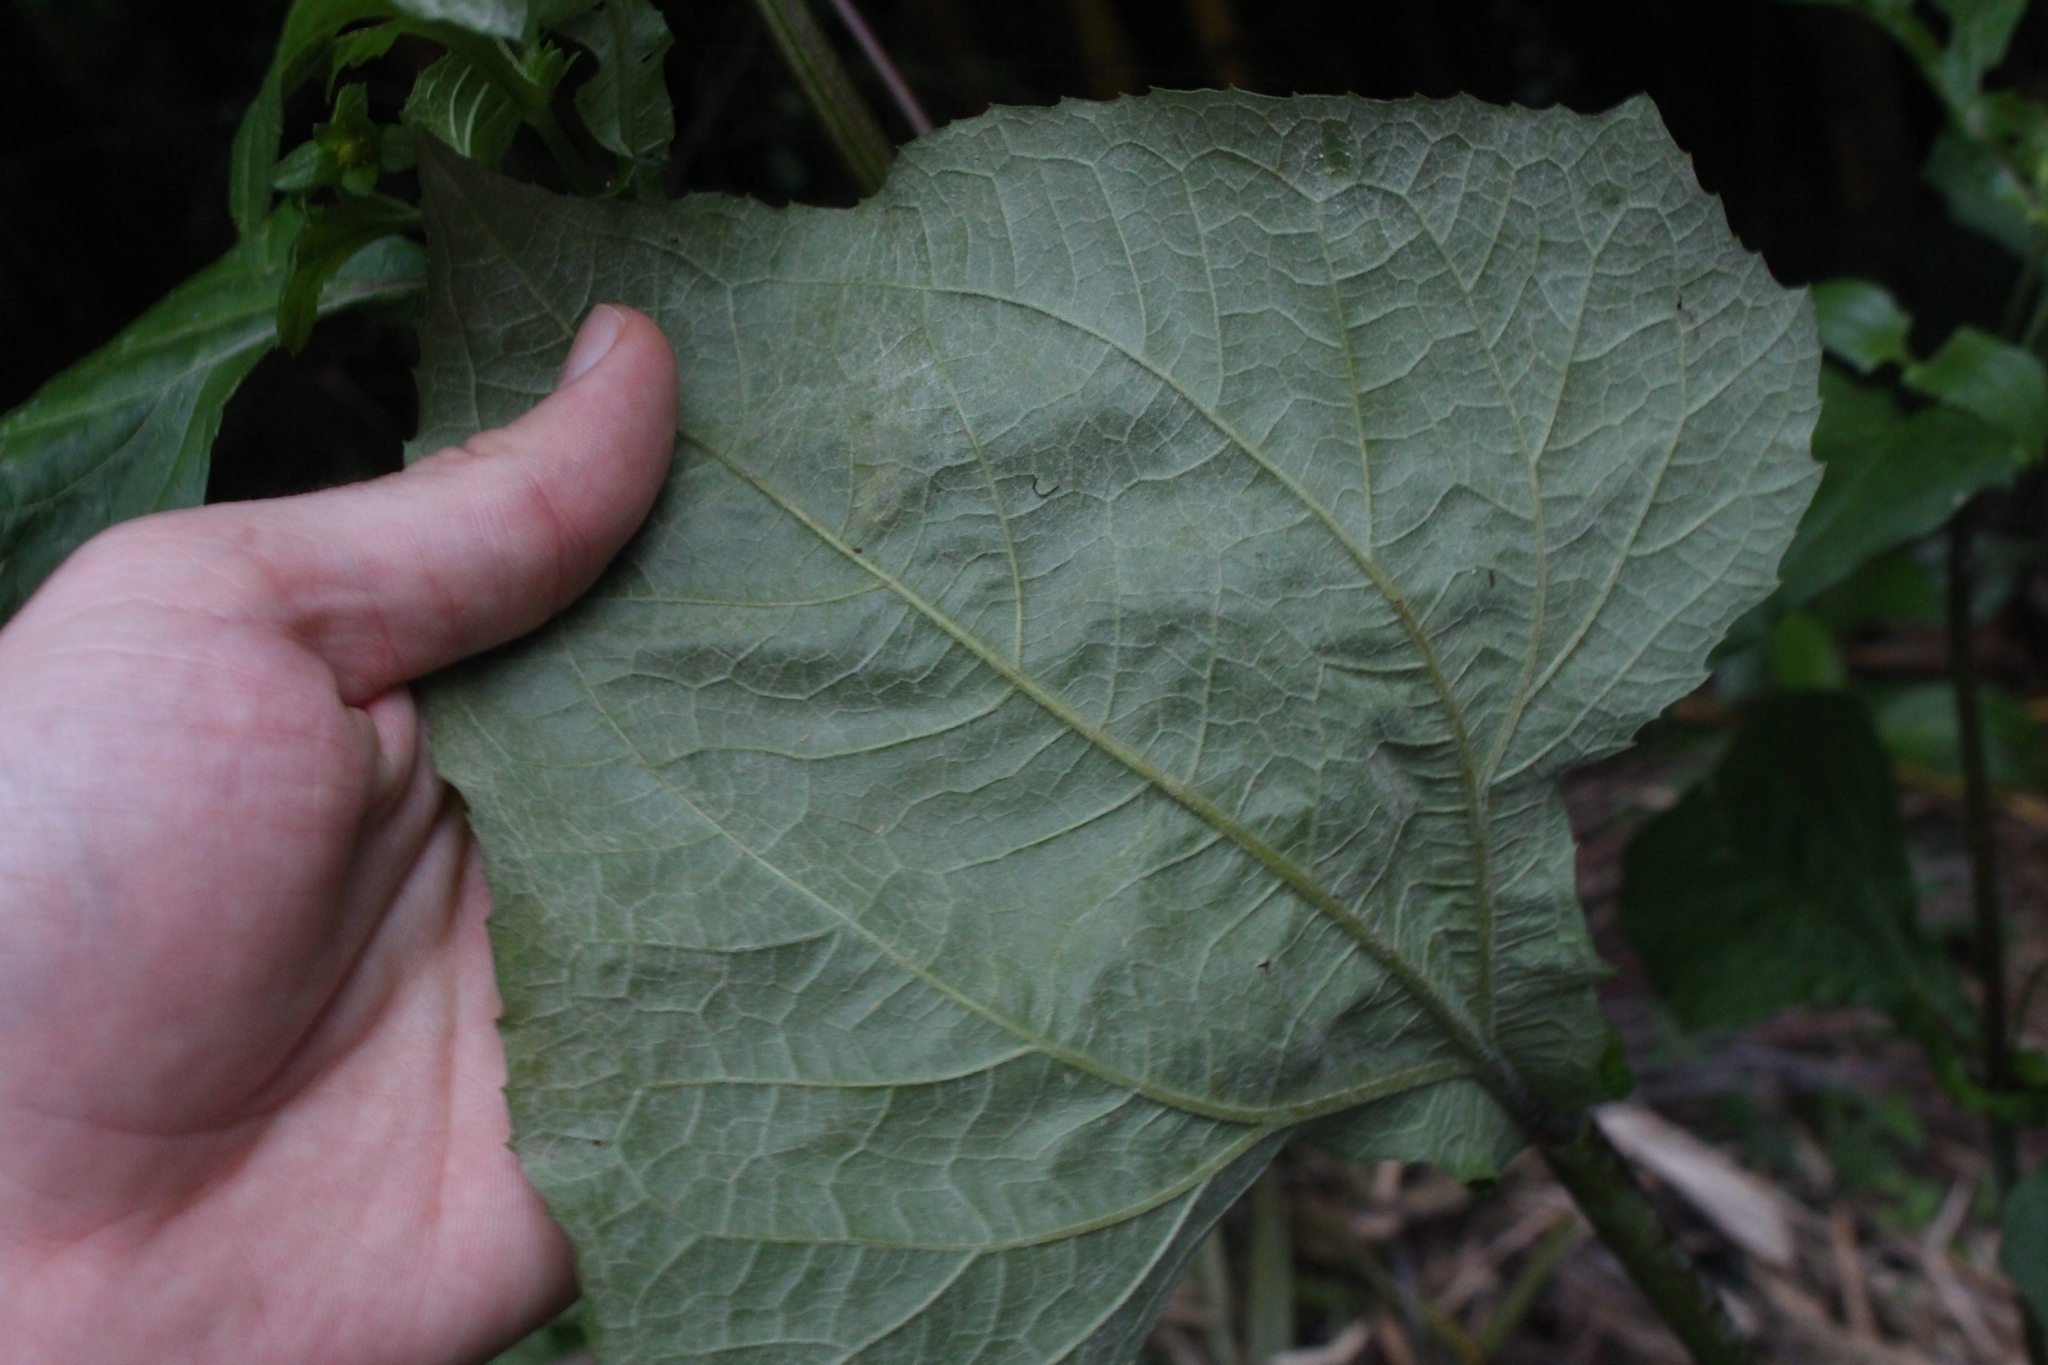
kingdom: Plantae
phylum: Tracheophyta
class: Magnoliopsida
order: Asterales
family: Asteraceae
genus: Melampodium
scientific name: Melampodium perfoliatum
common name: Perfoliate blackfoot
